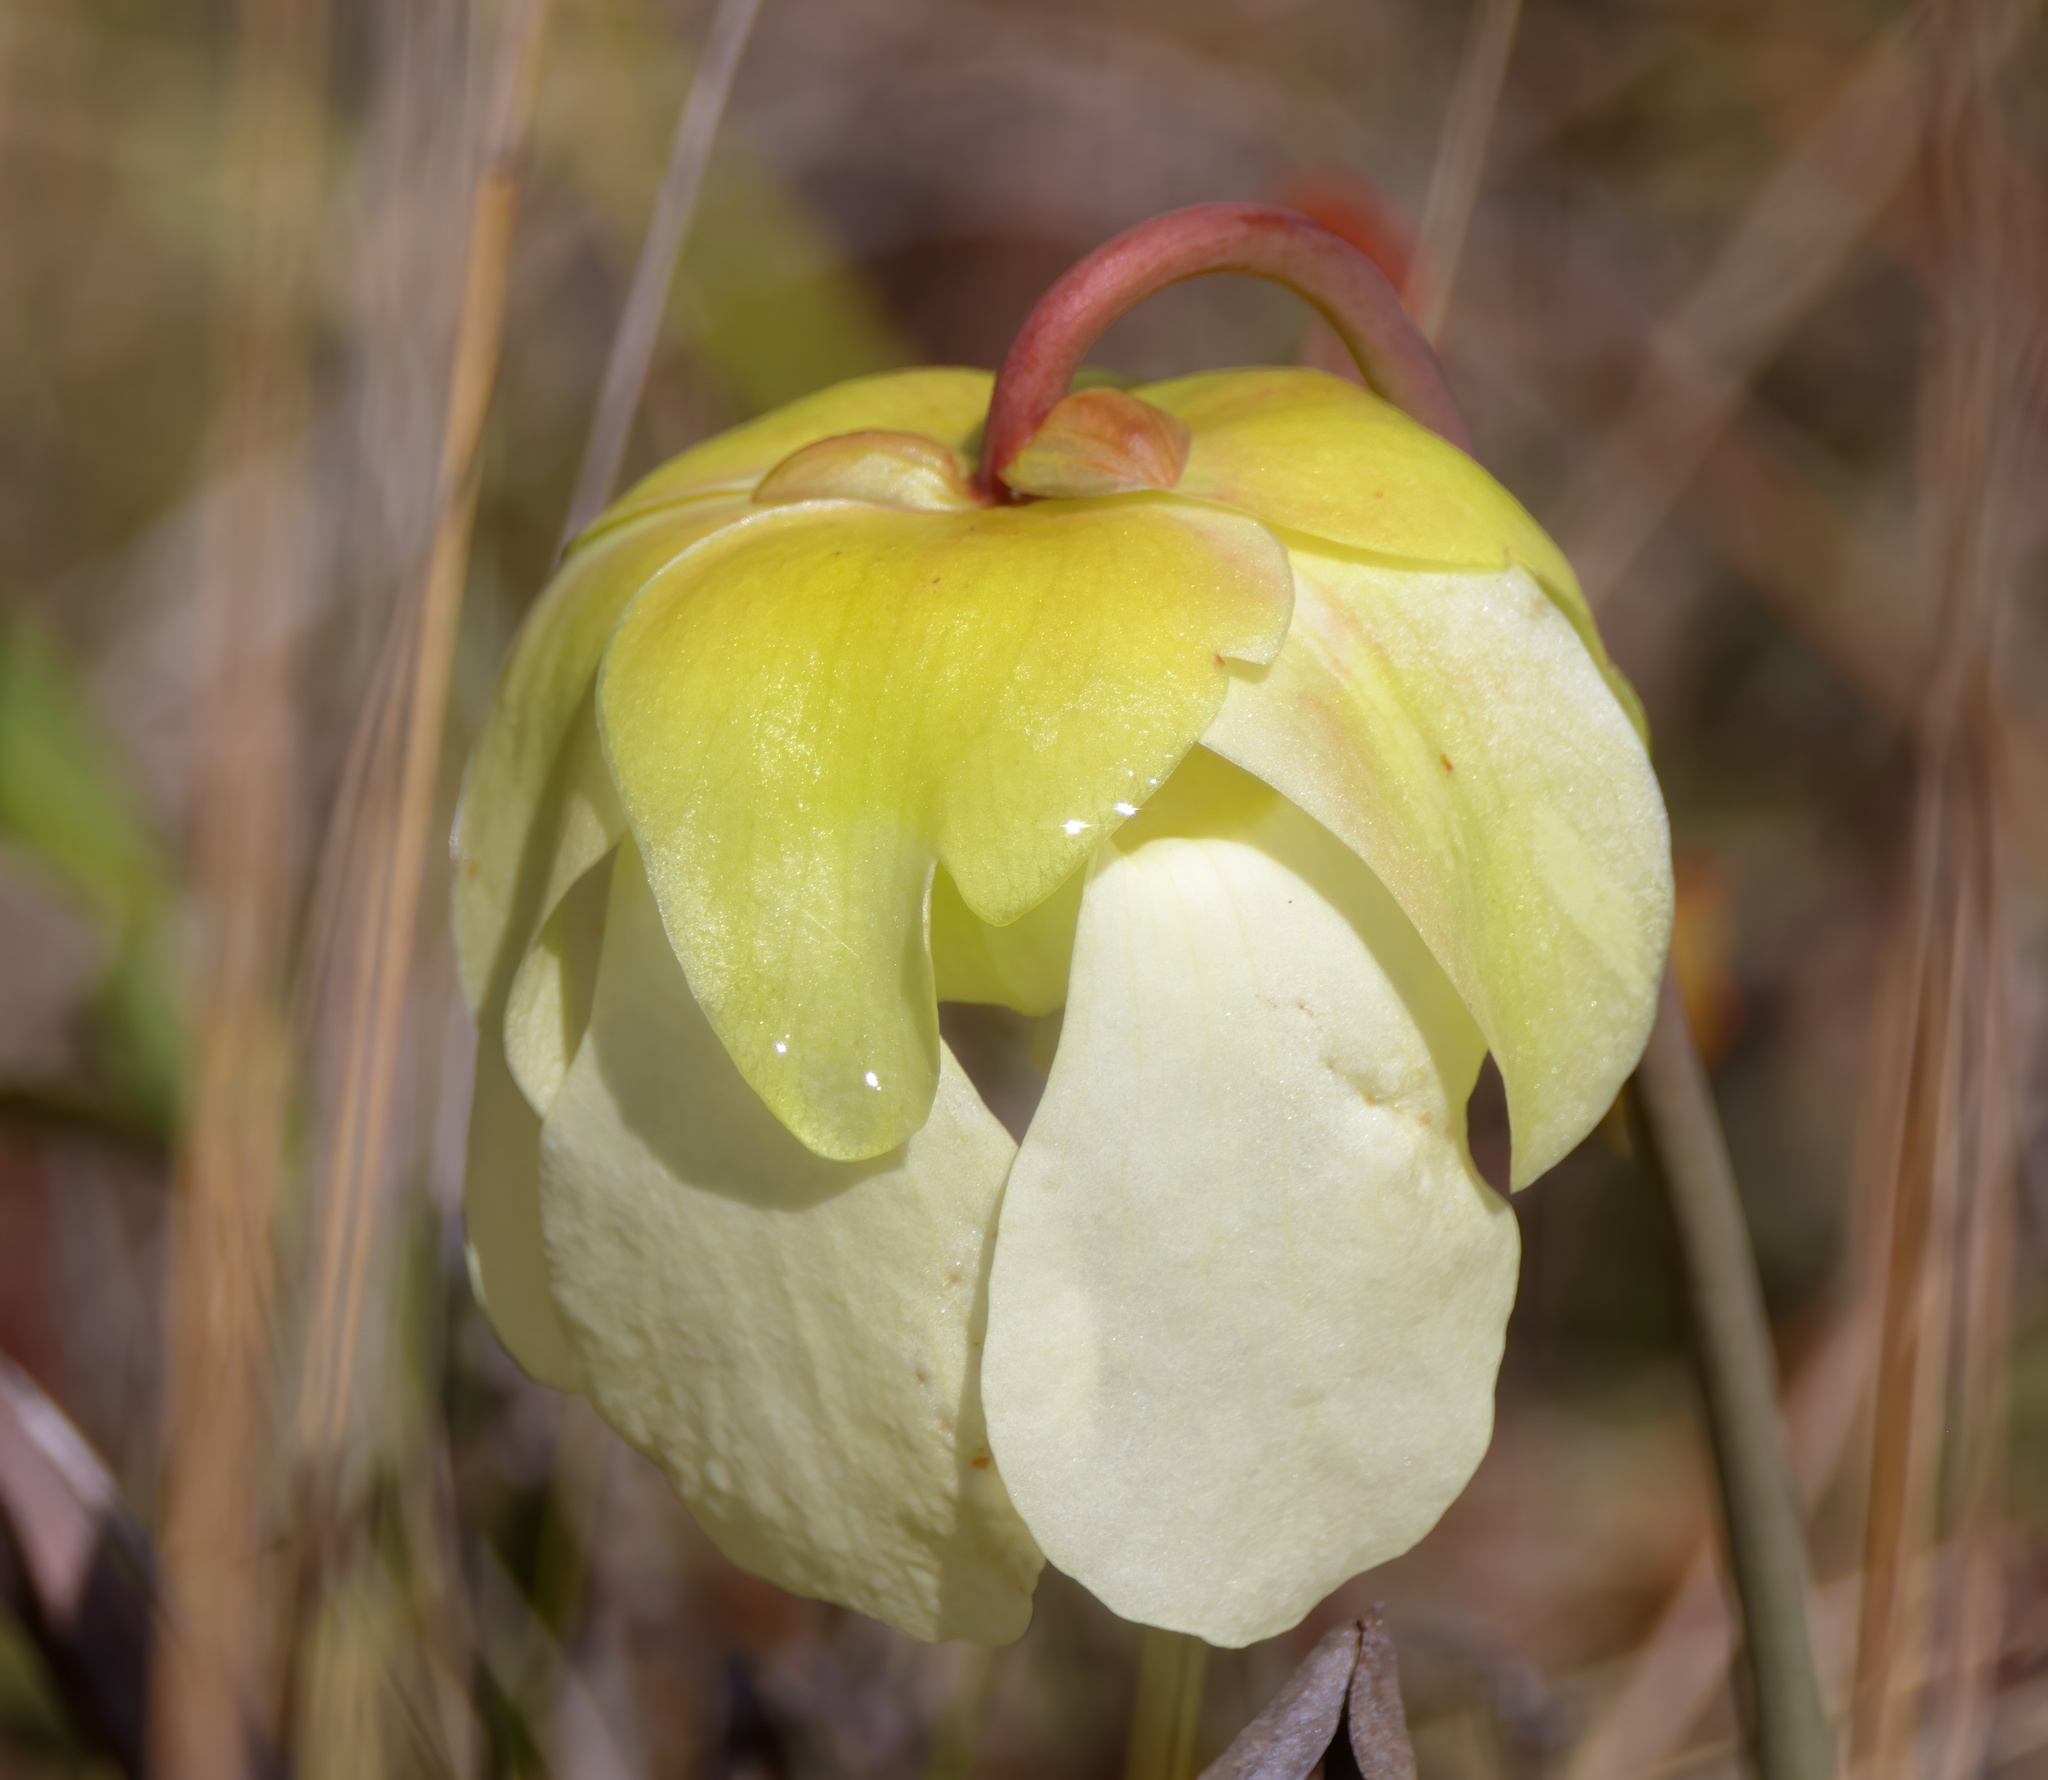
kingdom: Plantae
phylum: Tracheophyta
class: Magnoliopsida
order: Ericales
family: Sarraceniaceae
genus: Sarracenia
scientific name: Sarracenia alata
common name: Yellow trumpets
